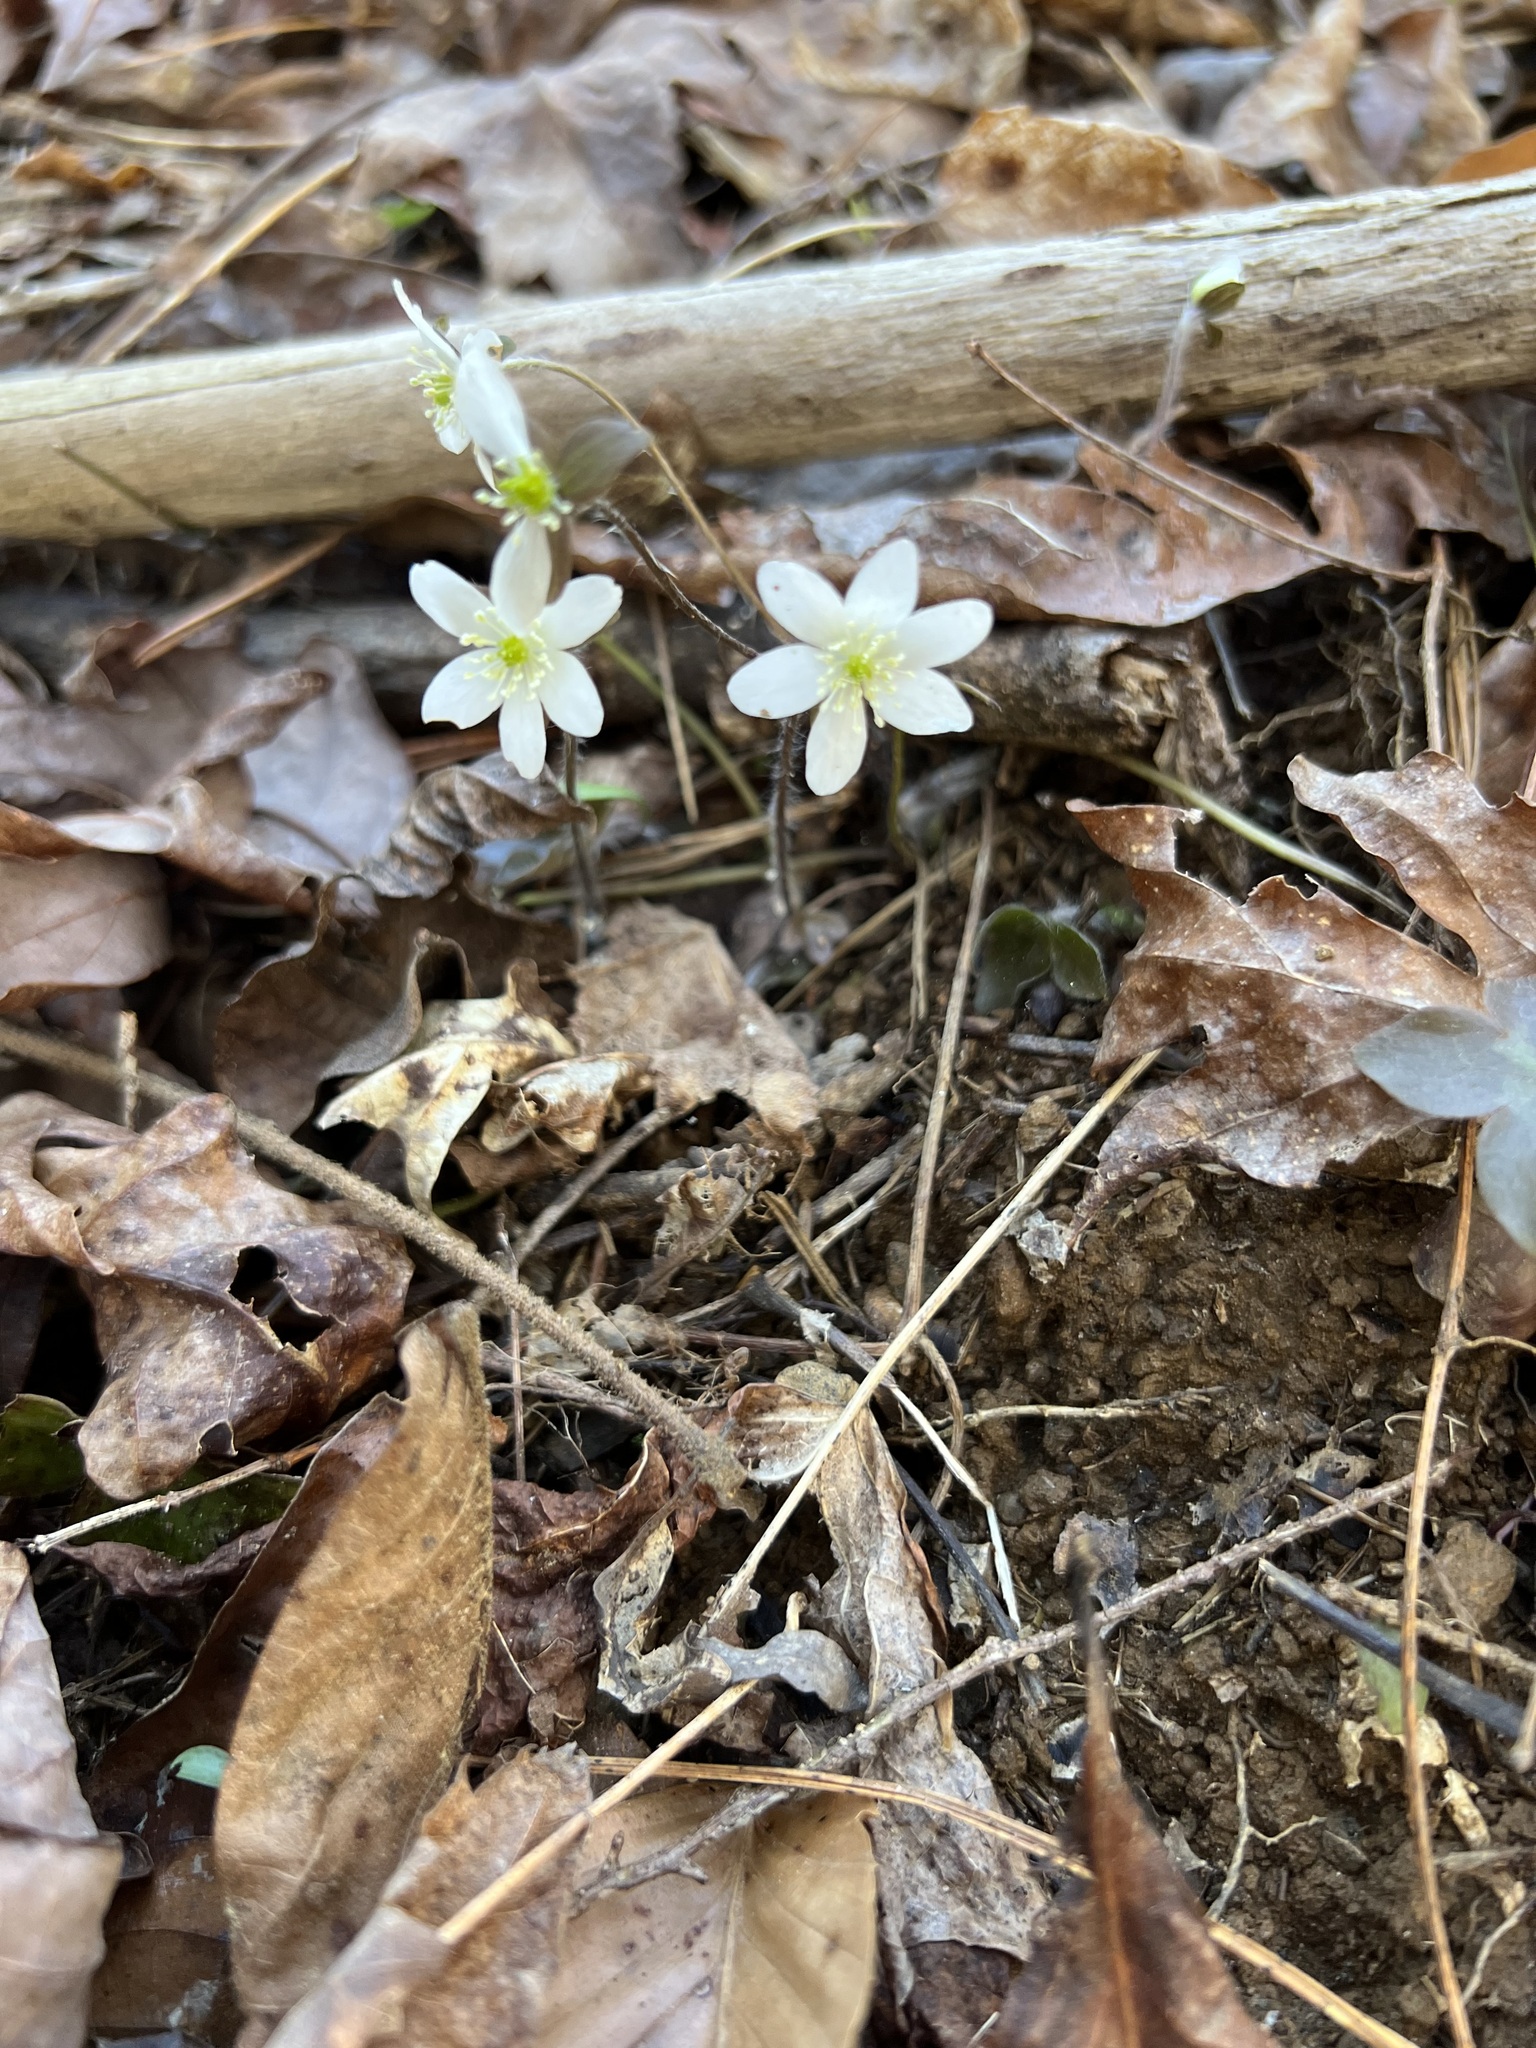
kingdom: Plantae
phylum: Tracheophyta
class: Magnoliopsida
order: Ranunculales
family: Ranunculaceae
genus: Hepatica
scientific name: Hepatica acutiloba
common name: Sharp-lobed hepatica
